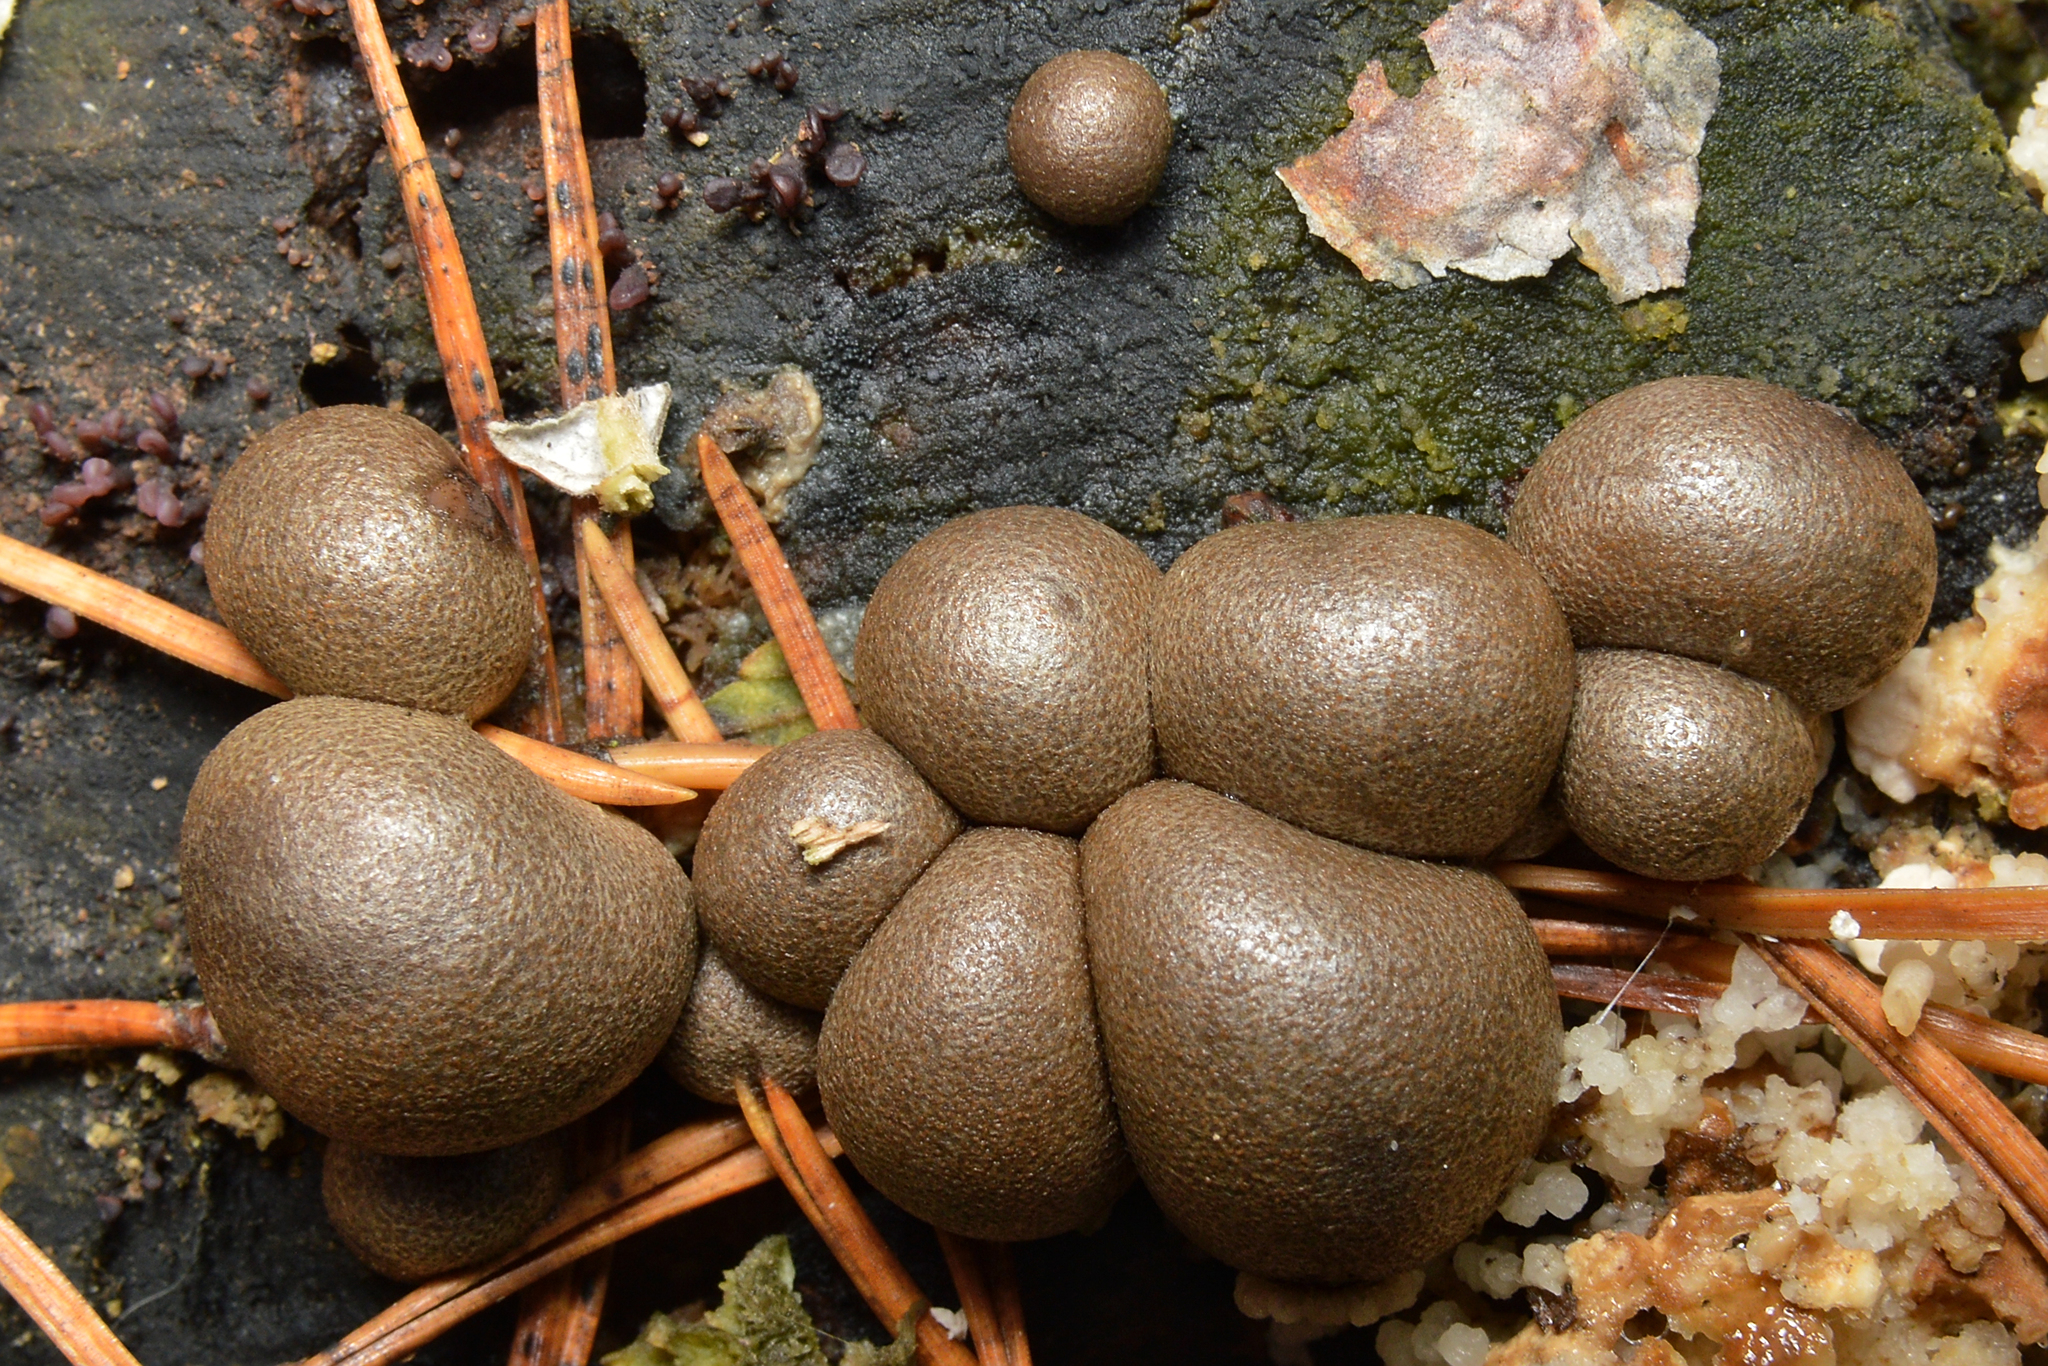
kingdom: Protozoa
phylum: Mycetozoa
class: Myxomycetes
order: Cribrariales
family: Tubiferaceae
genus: Lycogala
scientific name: Lycogala epidendrum
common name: Wolf's milk
